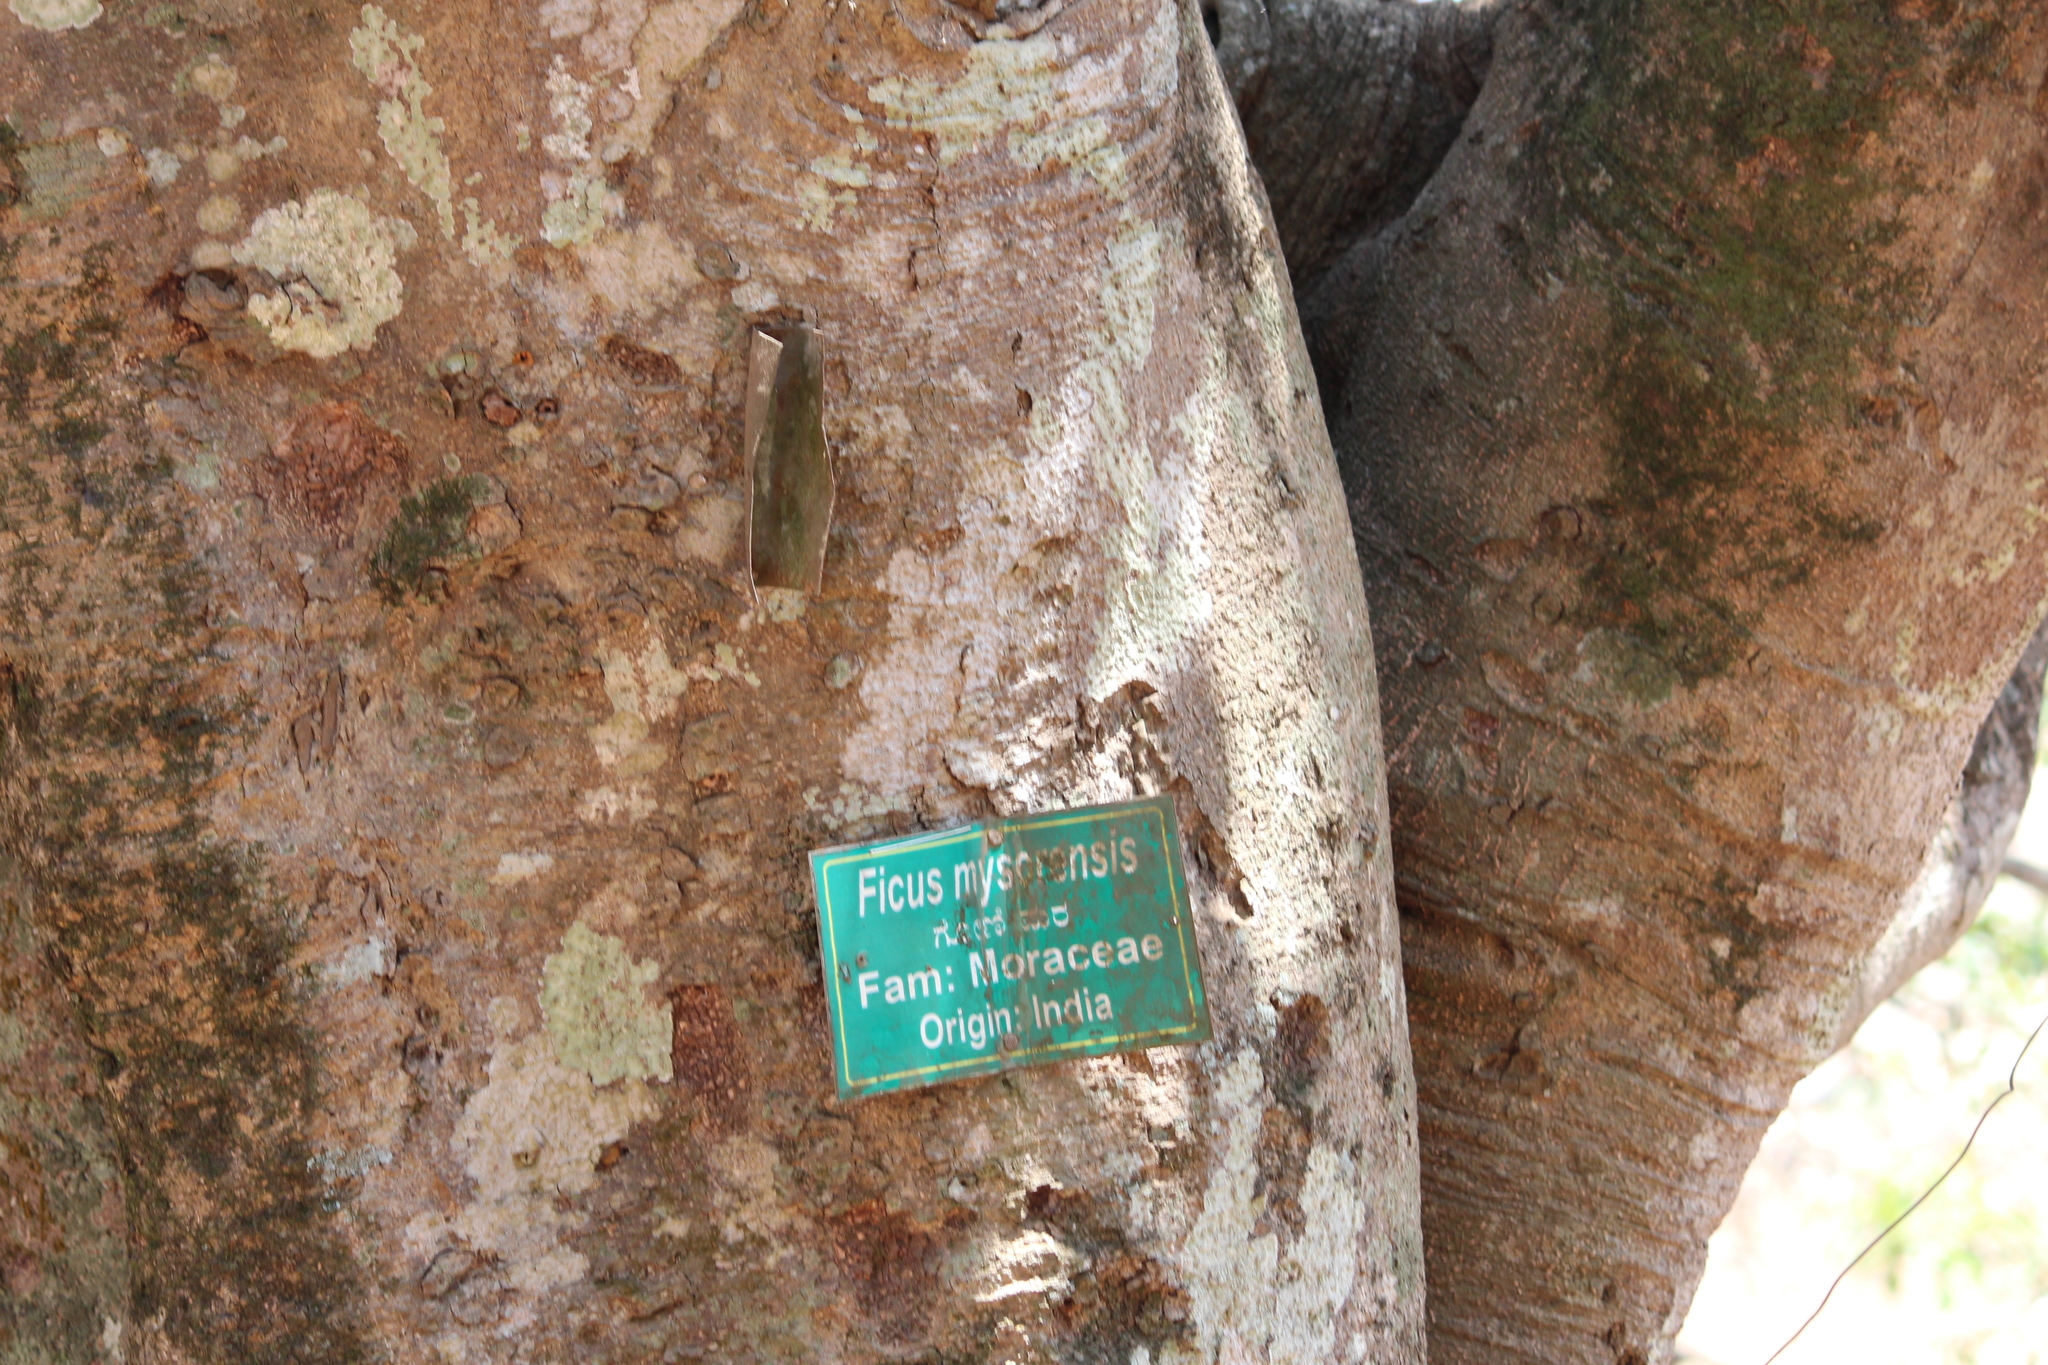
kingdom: Plantae
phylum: Tracheophyta
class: Magnoliopsida
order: Rosales
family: Moraceae
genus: Ficus
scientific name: Ficus drupacea
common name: Drupe fig
